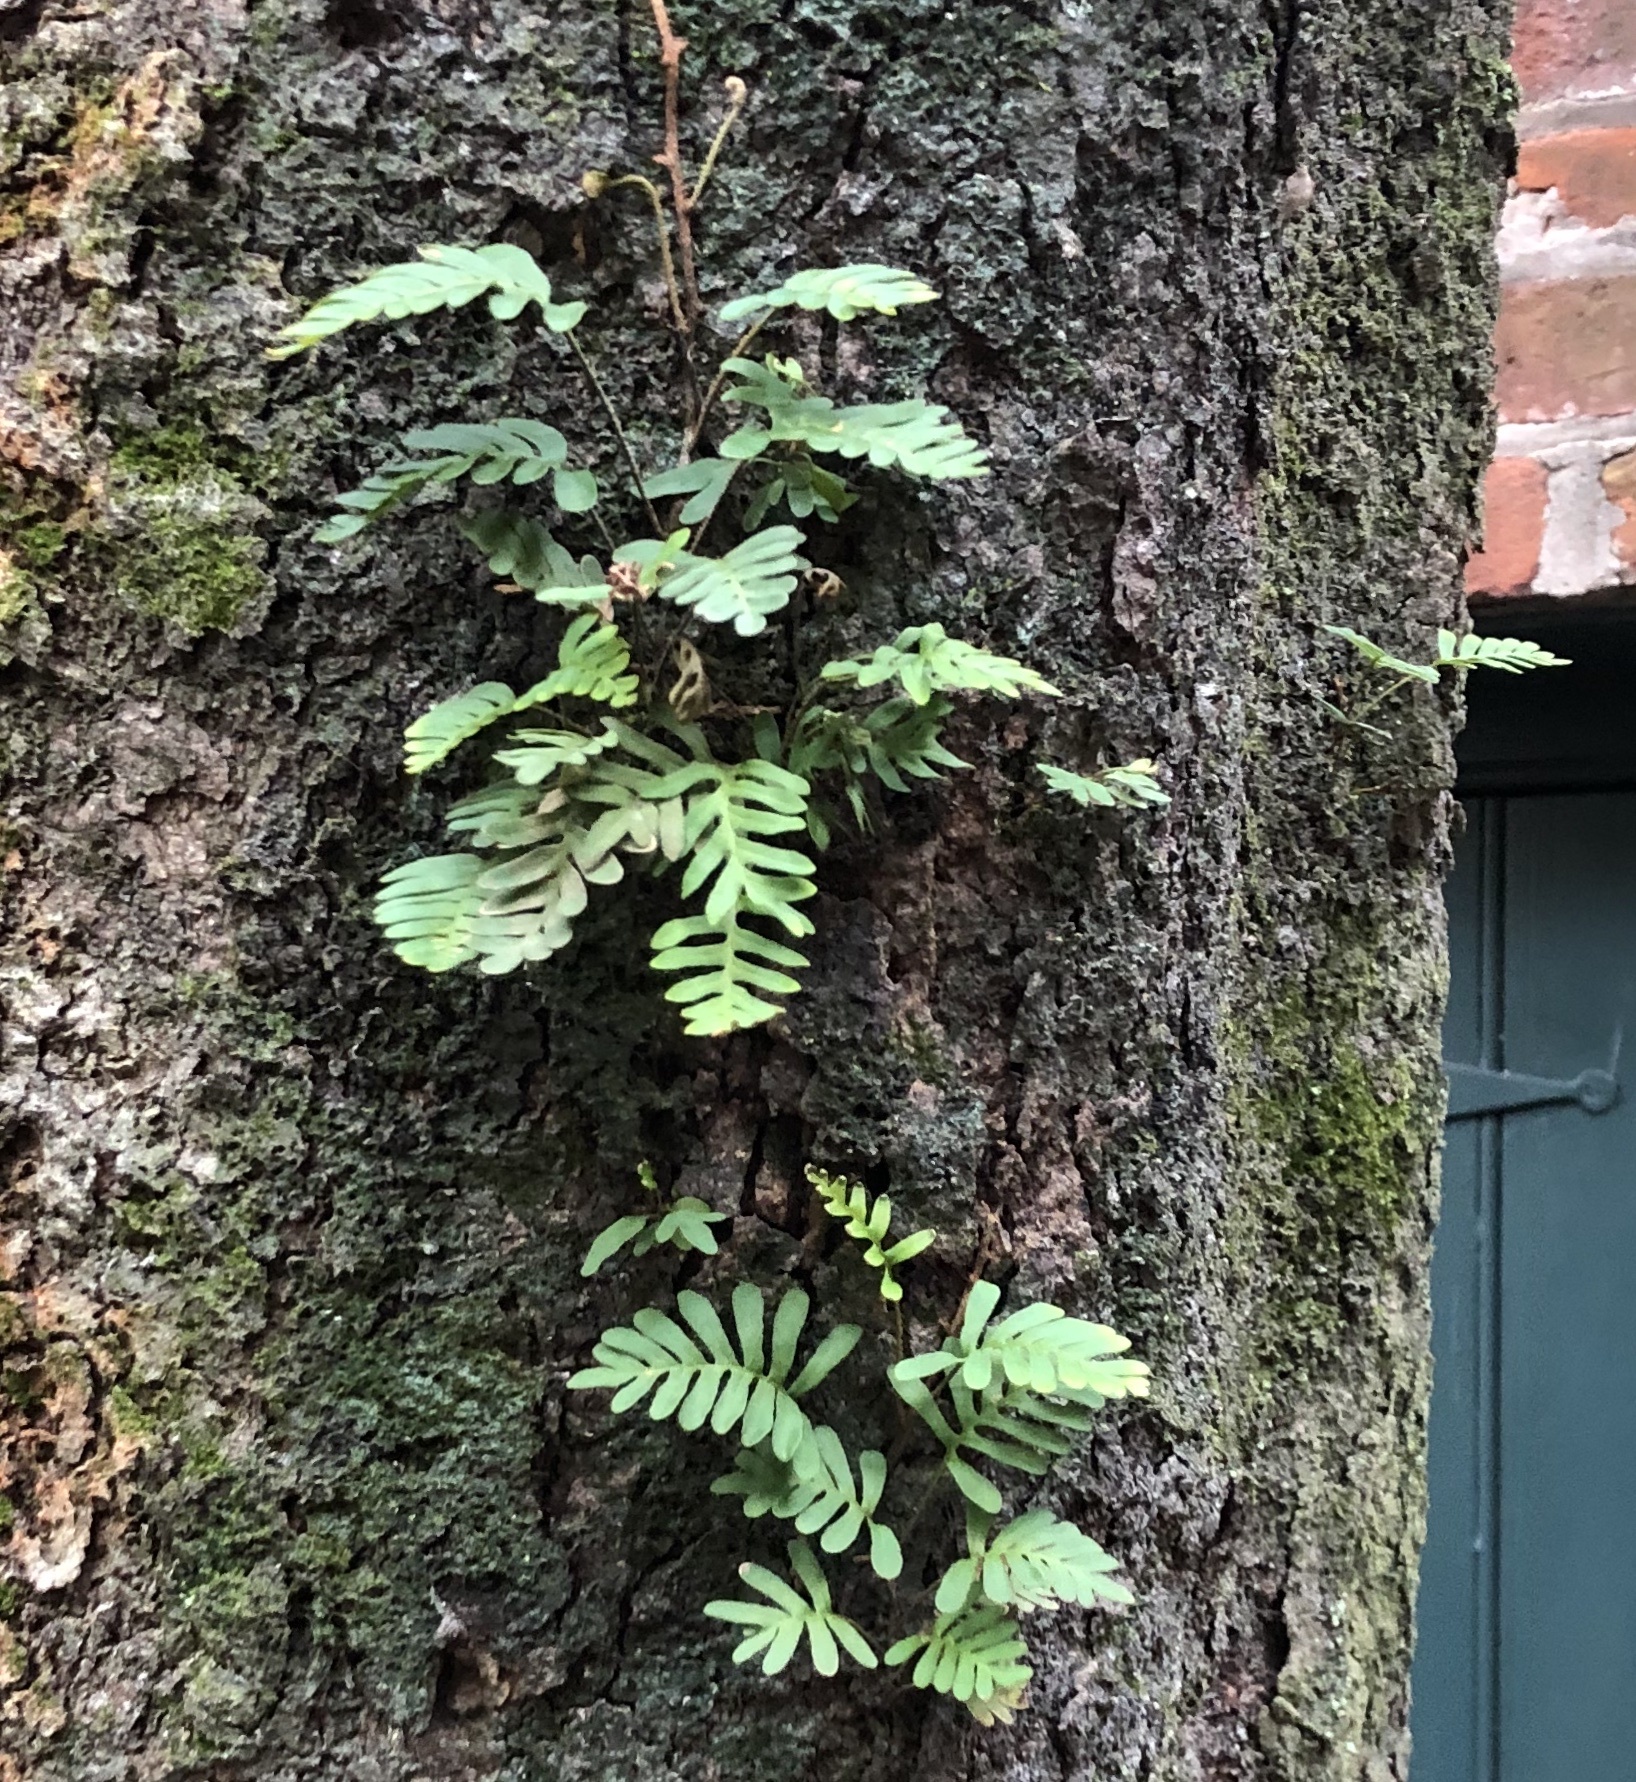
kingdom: Plantae
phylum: Tracheophyta
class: Polypodiopsida
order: Polypodiales
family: Polypodiaceae
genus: Pleopeltis
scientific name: Pleopeltis michauxiana
